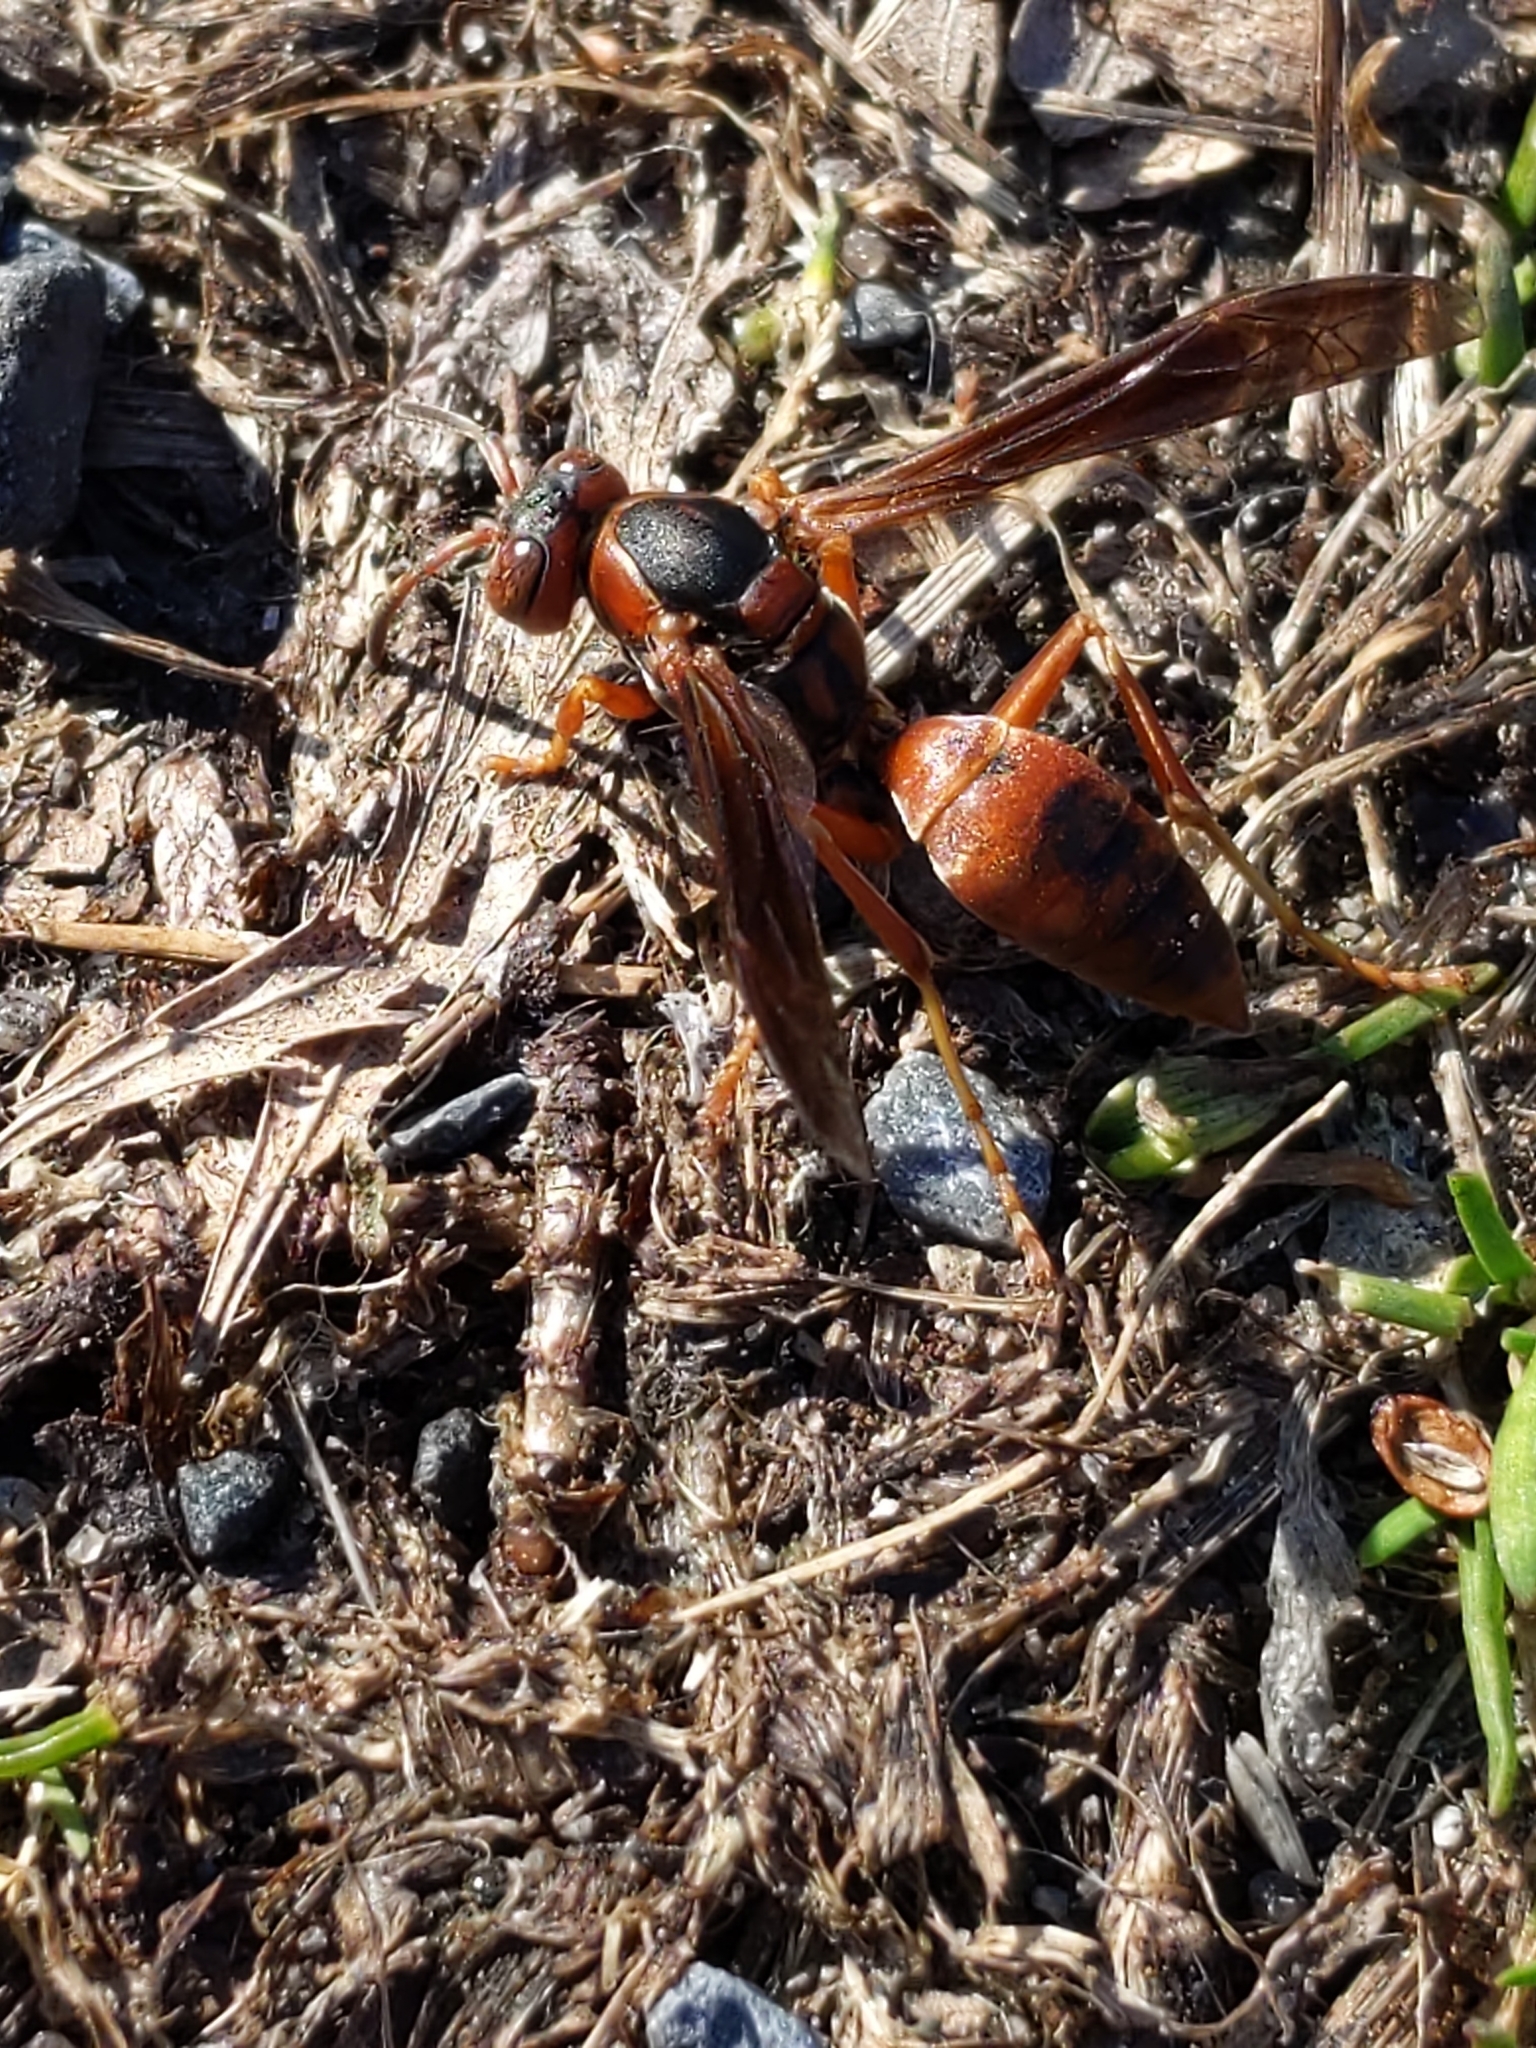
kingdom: Animalia
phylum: Arthropoda
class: Insecta
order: Hymenoptera
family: Eumenidae
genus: Polistes
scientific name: Polistes fuscatus
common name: Dark paper wasp
